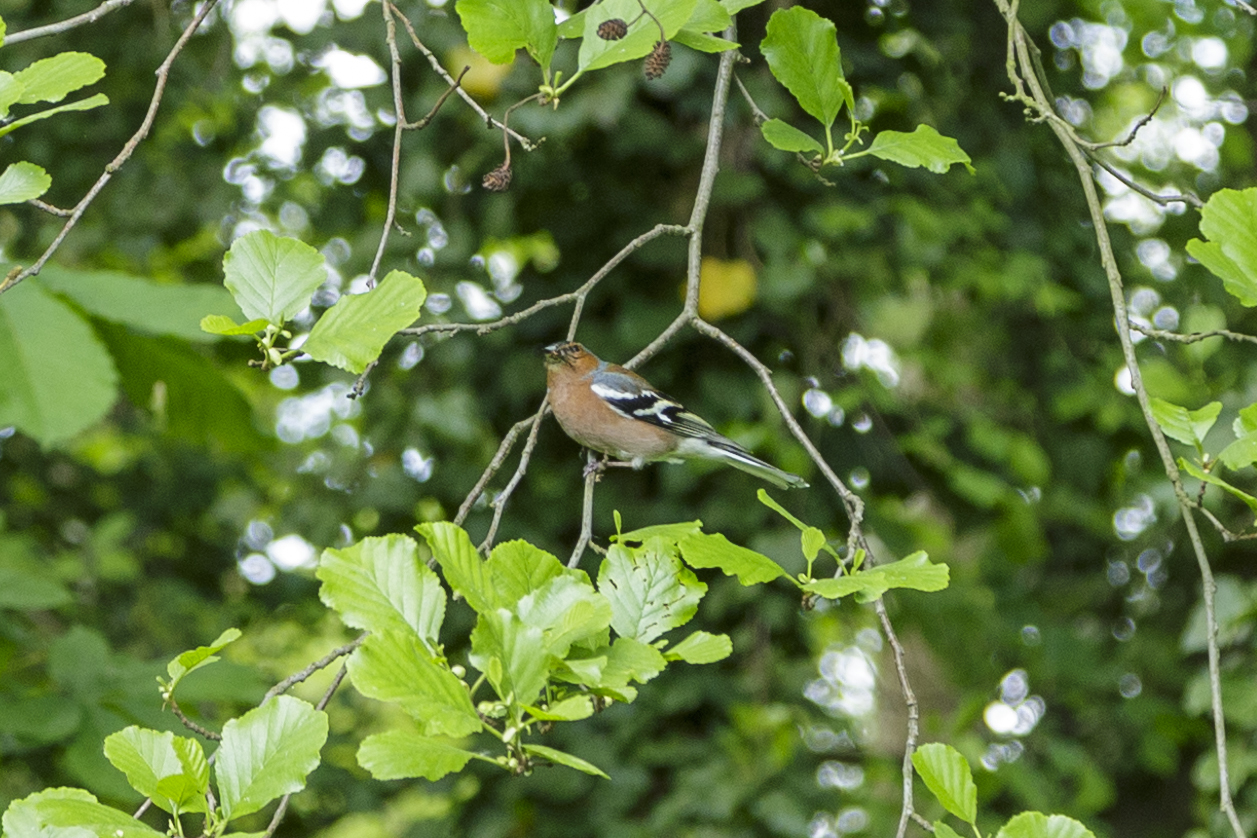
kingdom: Animalia
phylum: Chordata
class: Aves
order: Passeriformes
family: Fringillidae
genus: Fringilla
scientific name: Fringilla coelebs
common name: Common chaffinch
